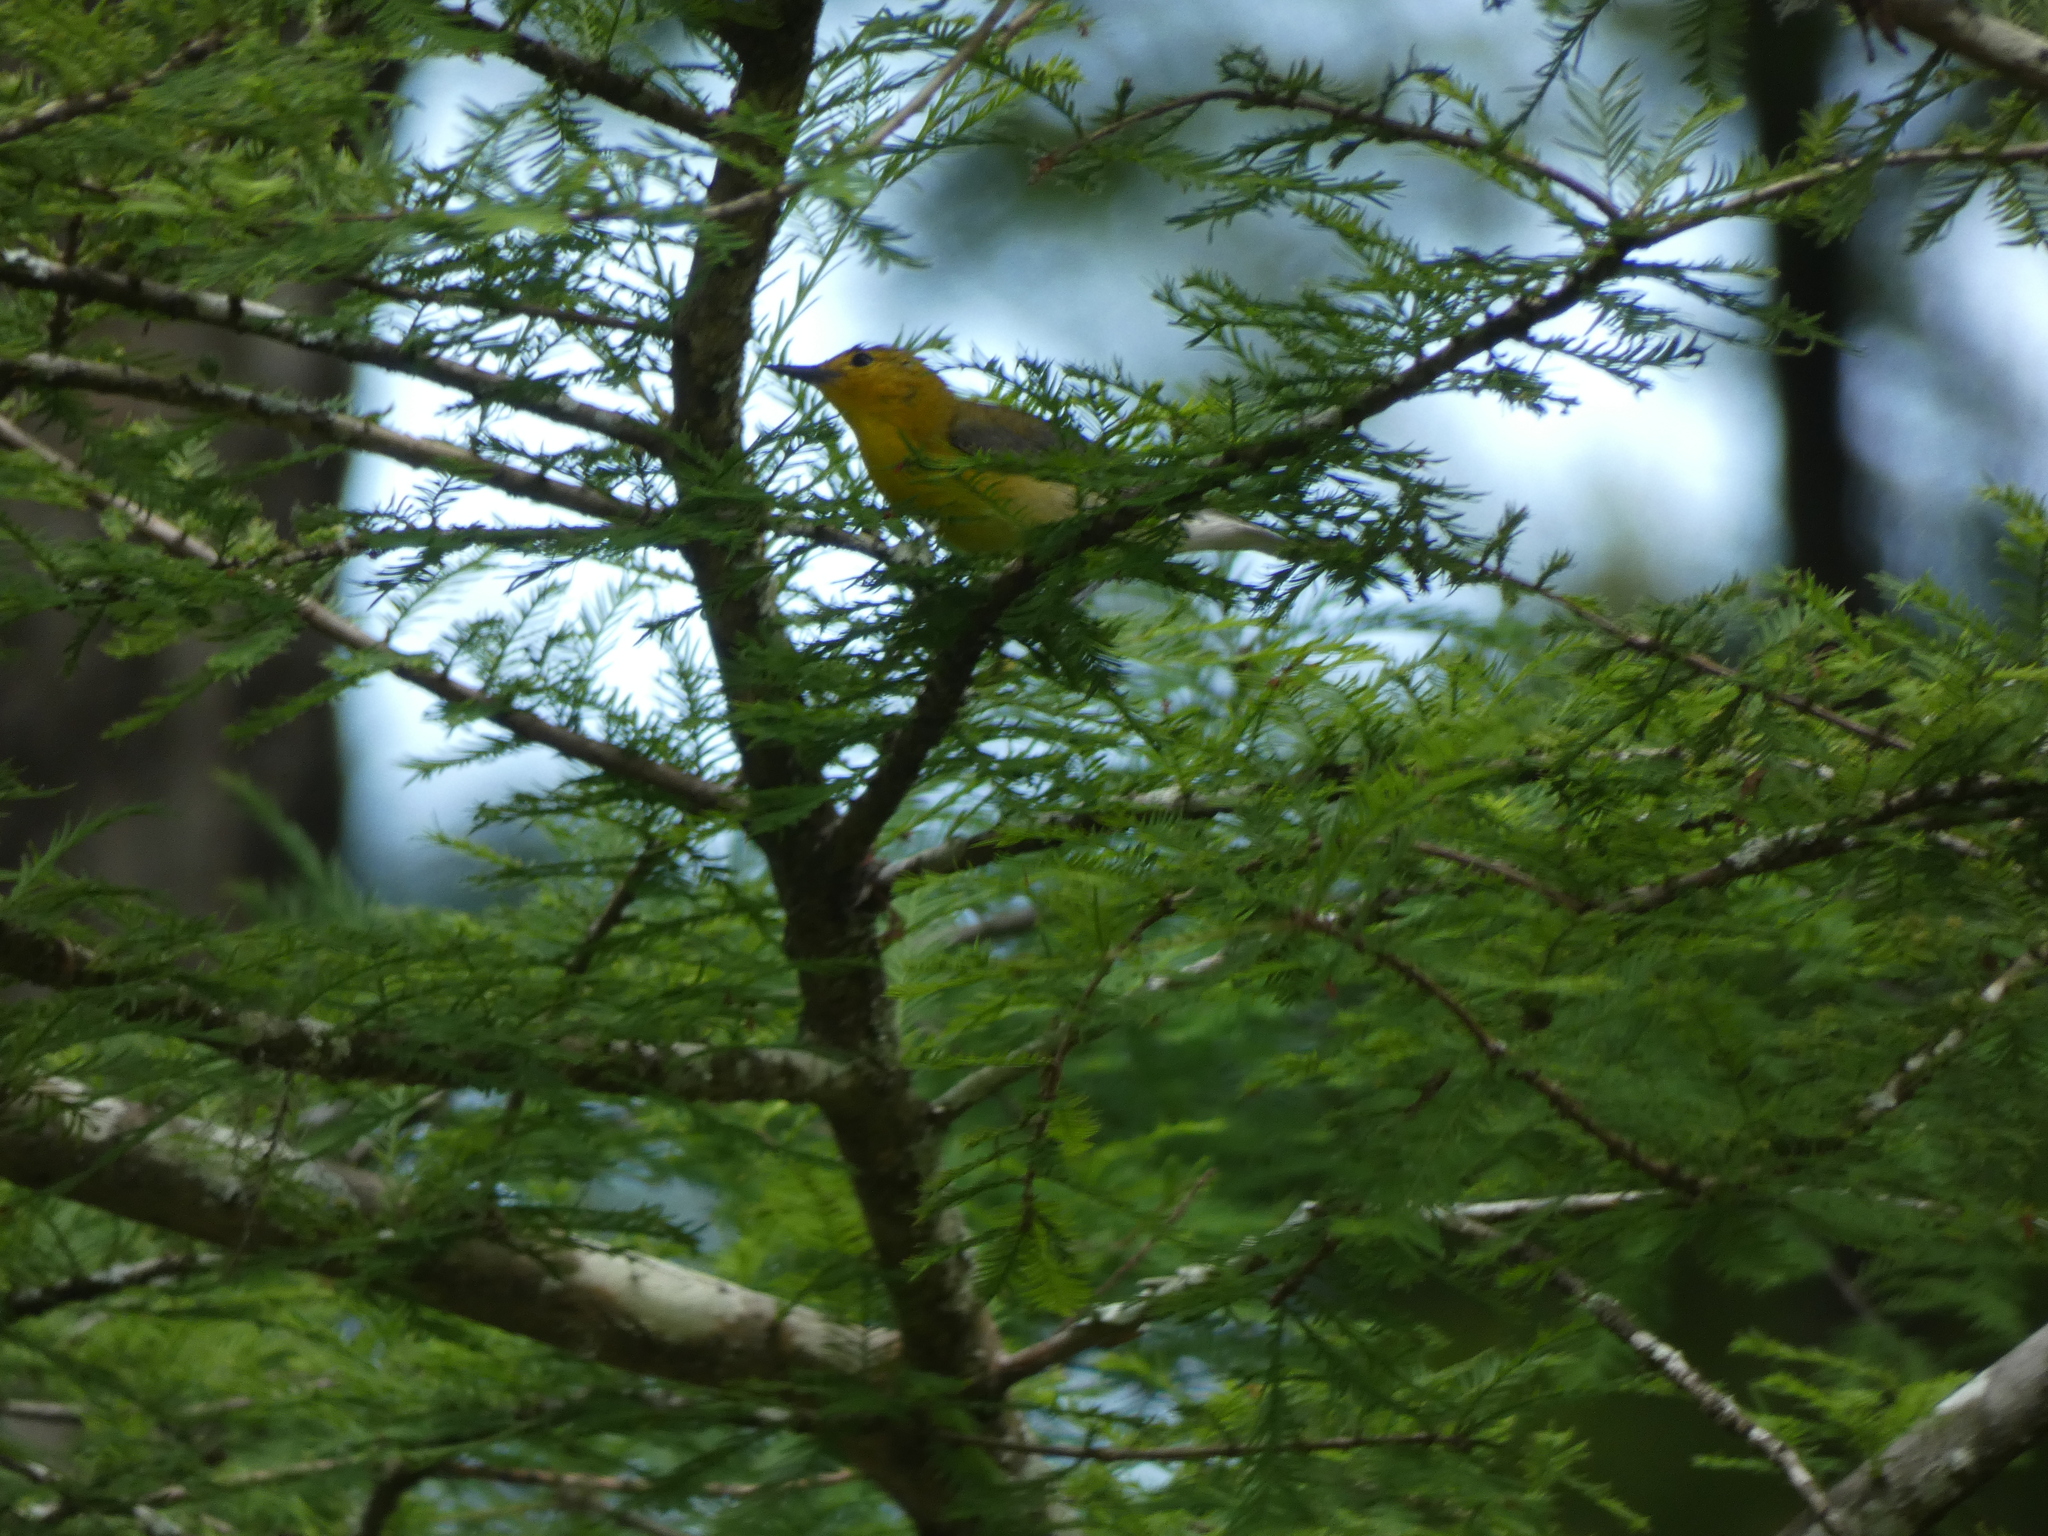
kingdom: Animalia
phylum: Chordata
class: Aves
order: Passeriformes
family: Parulidae
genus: Protonotaria
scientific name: Protonotaria citrea
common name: Prothonotary warbler
